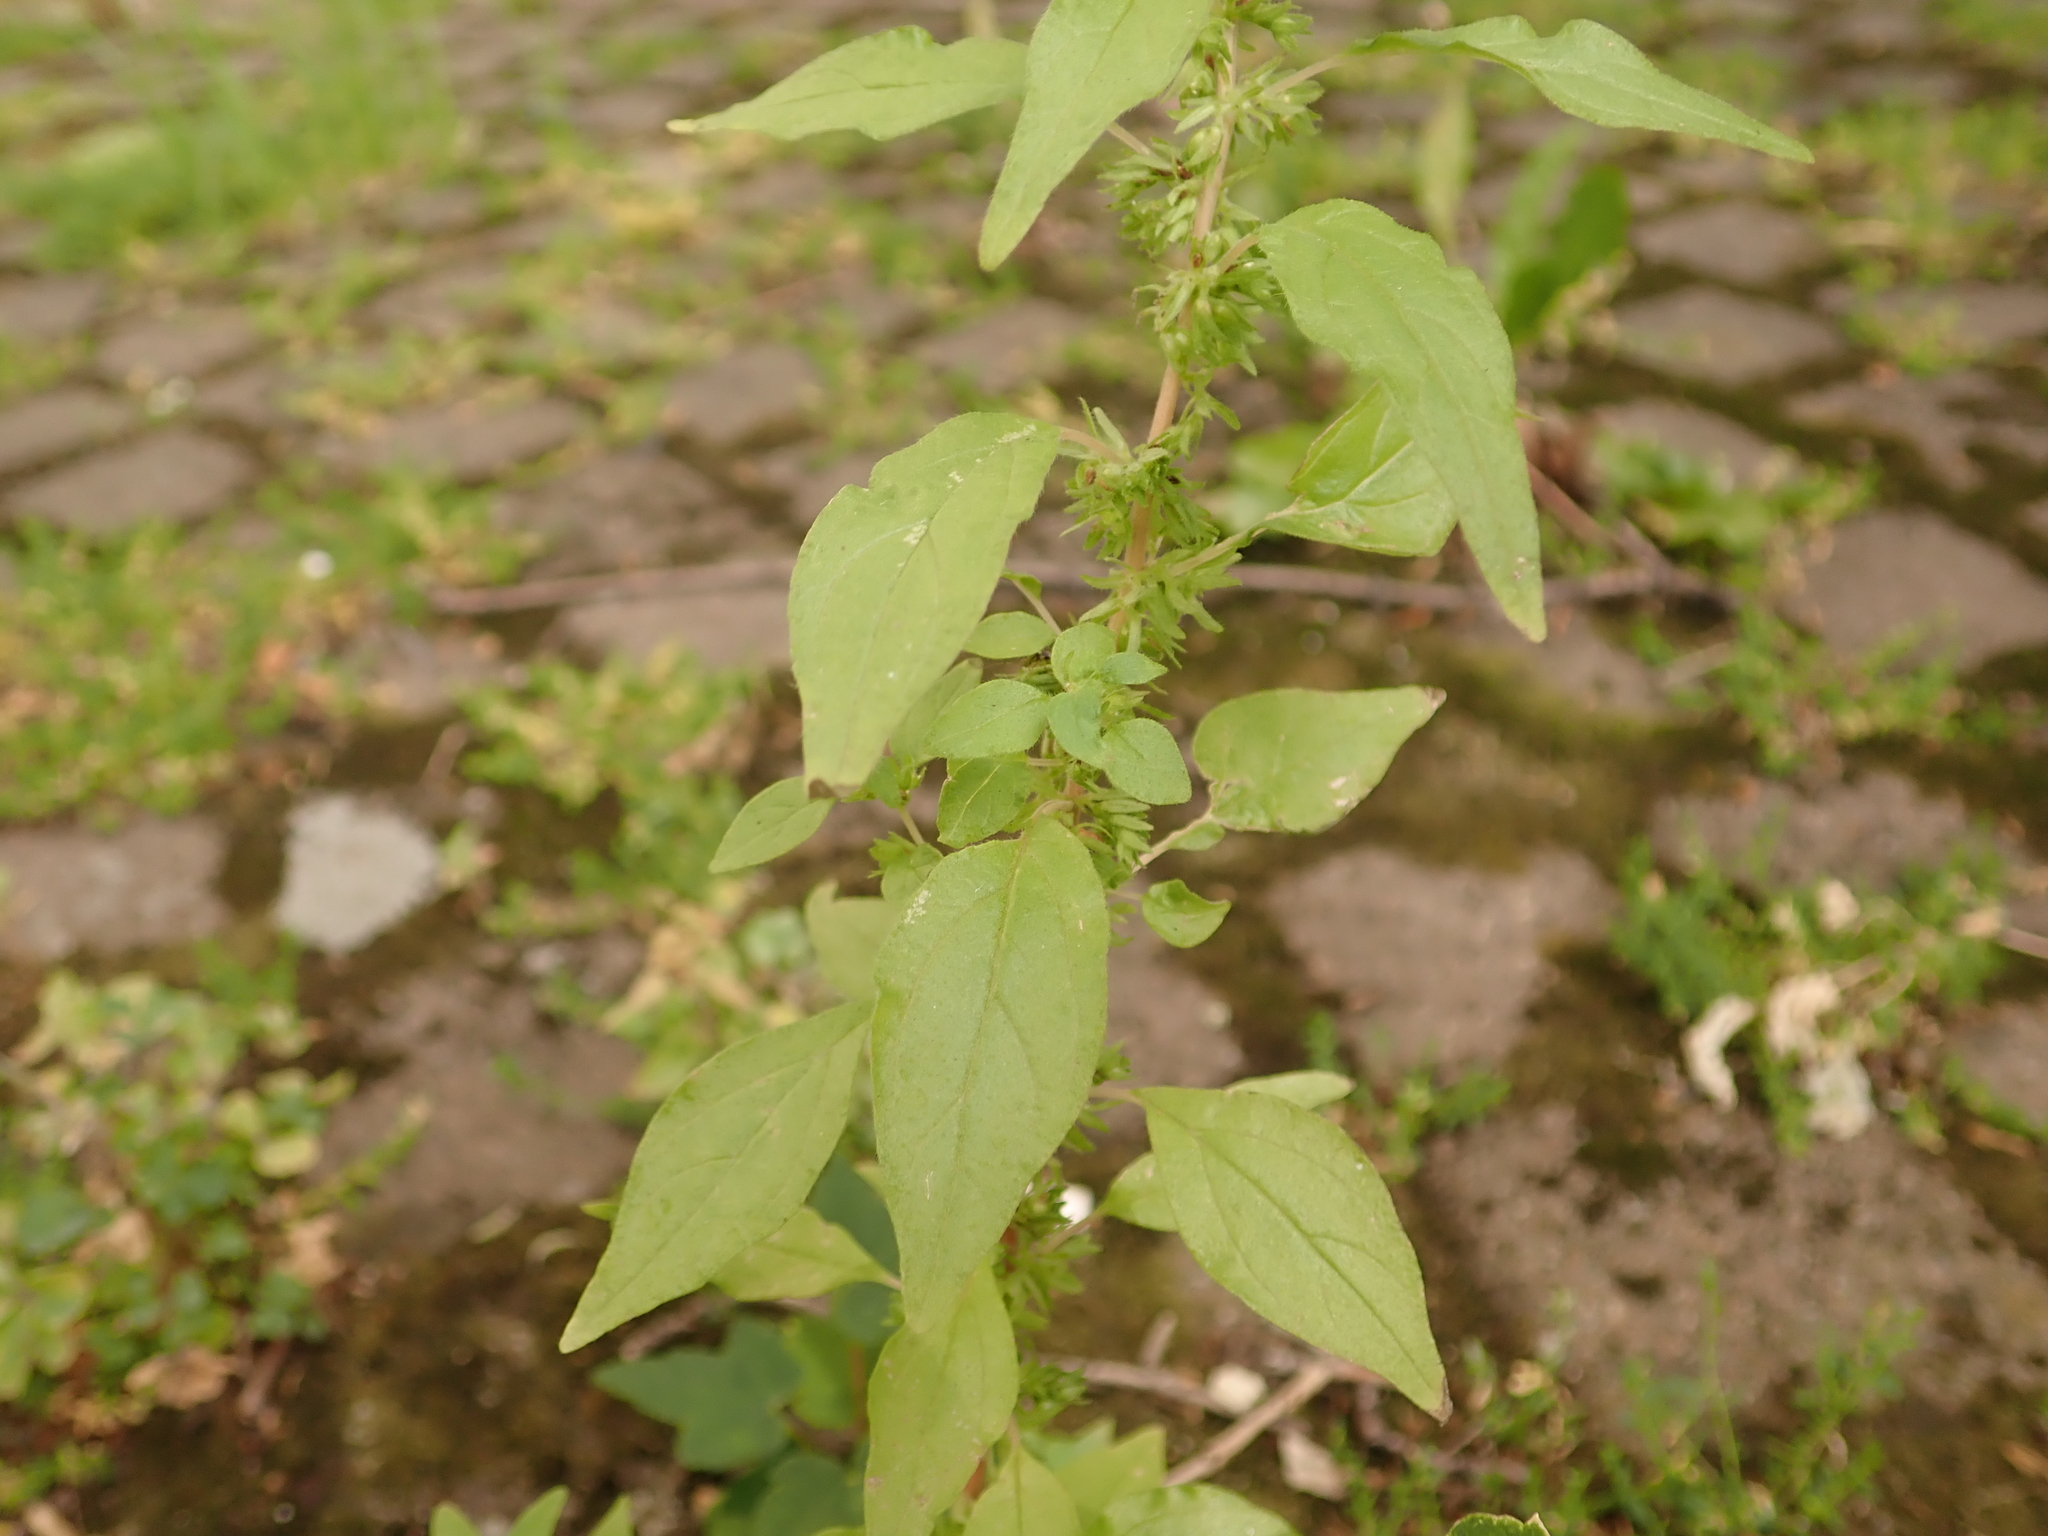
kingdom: Plantae
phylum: Tracheophyta
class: Magnoliopsida
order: Rosales
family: Urticaceae
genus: Parietaria
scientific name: Parietaria pensylvanica
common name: Pennsylvania pellitory
